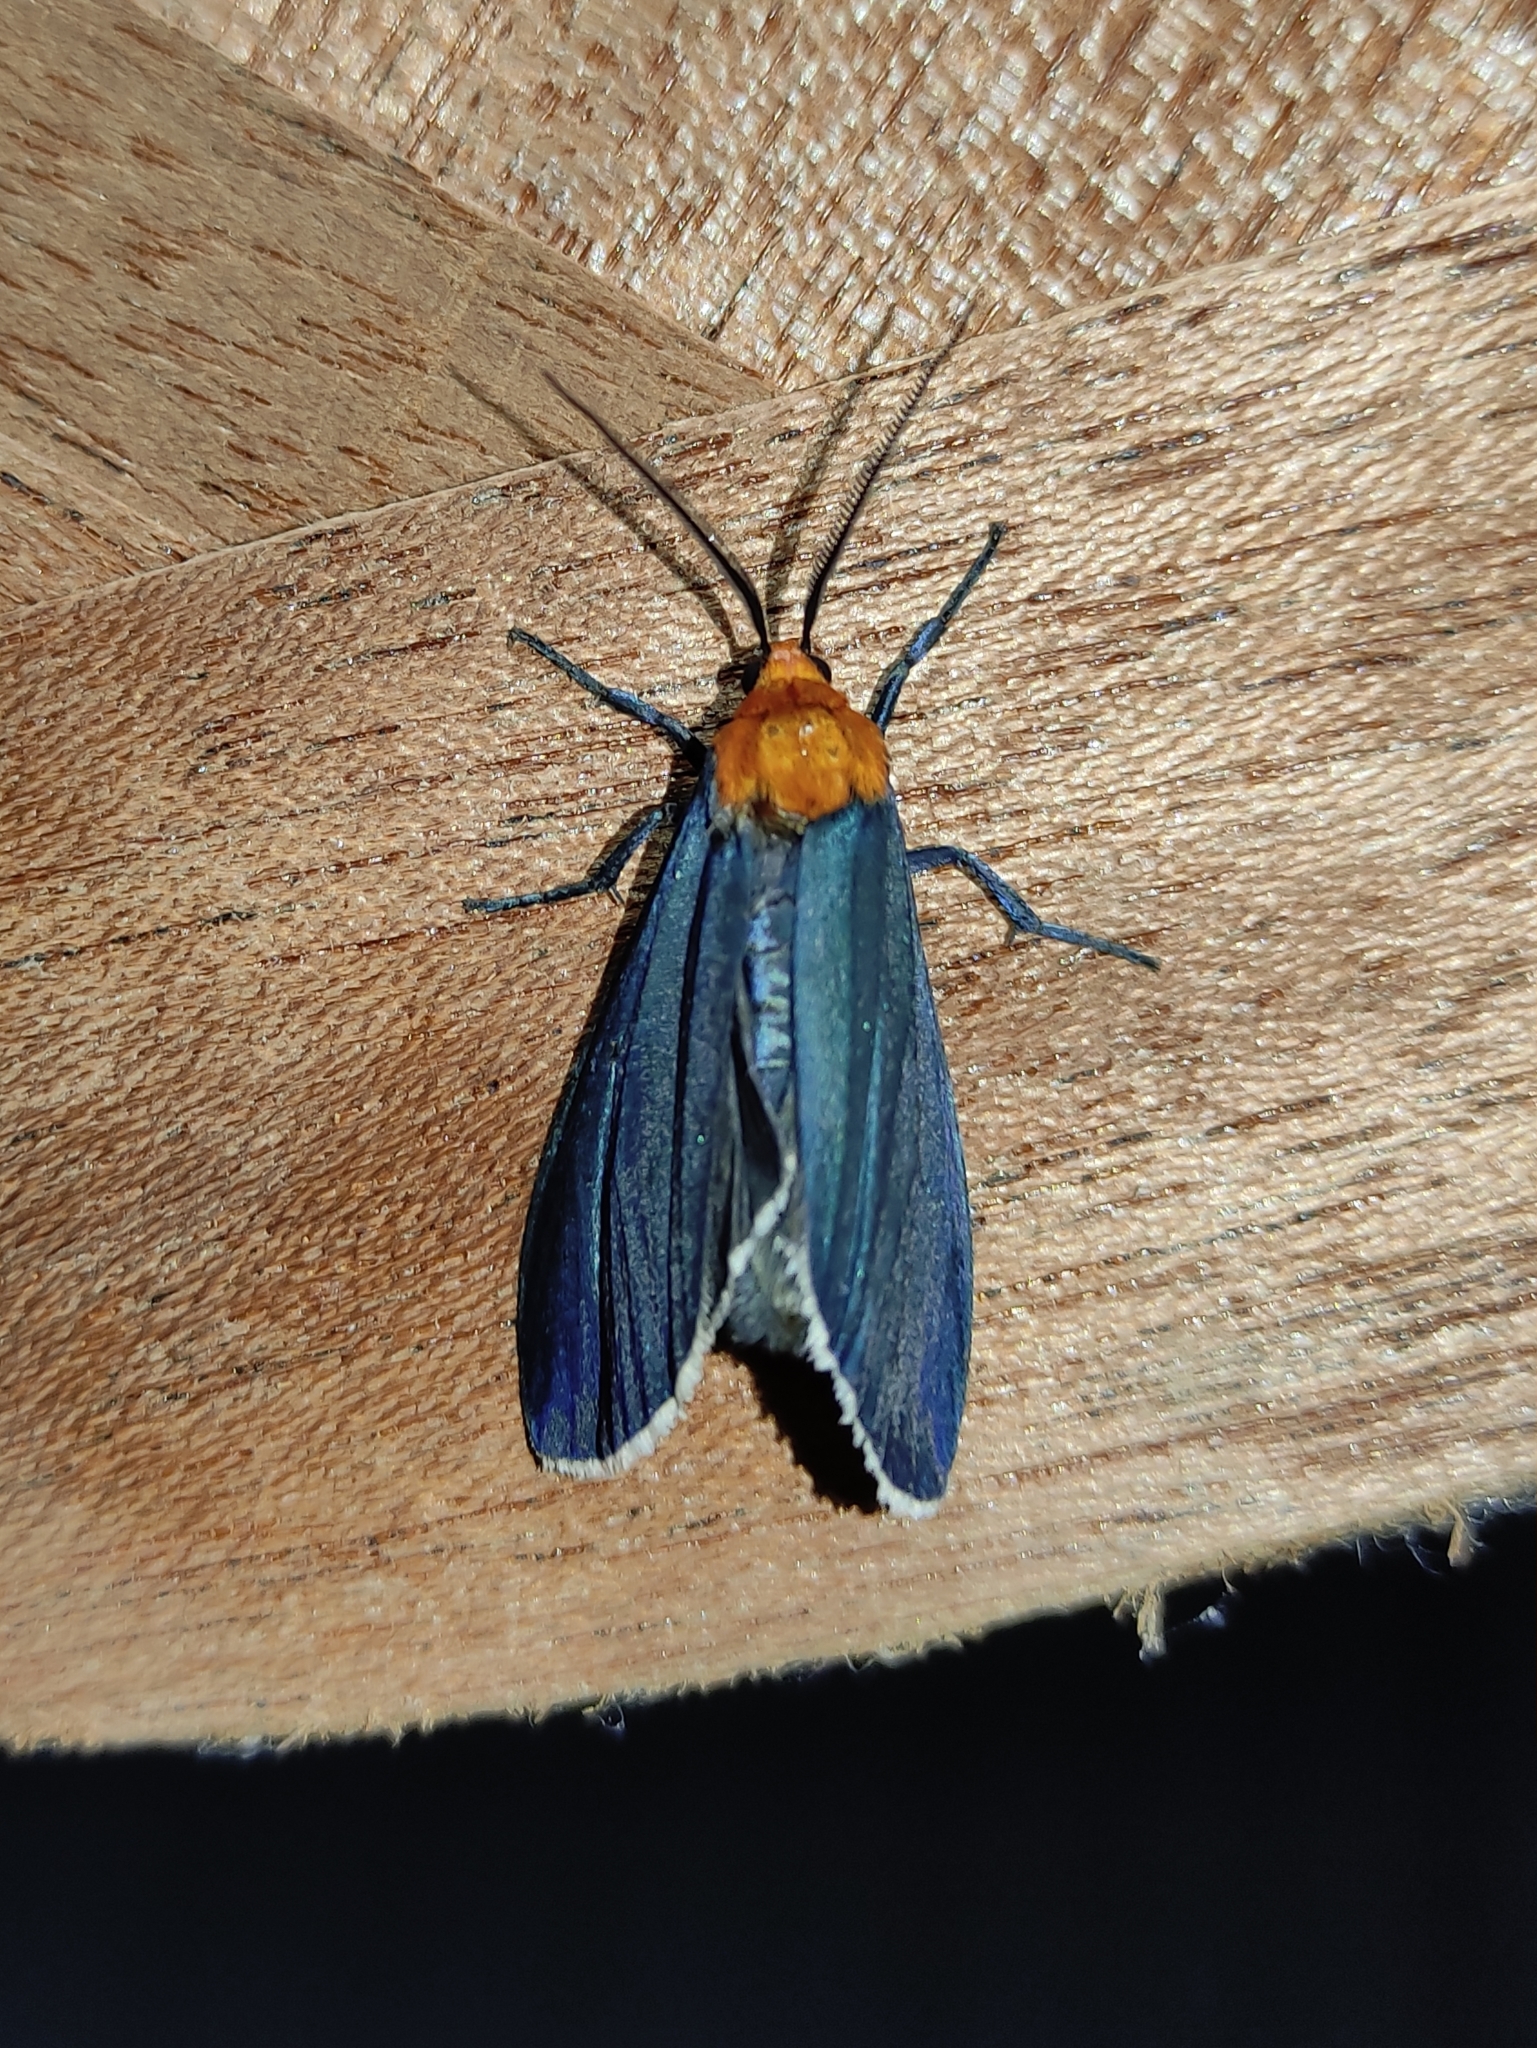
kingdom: Animalia
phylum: Arthropoda
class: Insecta
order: Lepidoptera
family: Erebidae
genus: Apistosia
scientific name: Apistosia judas
